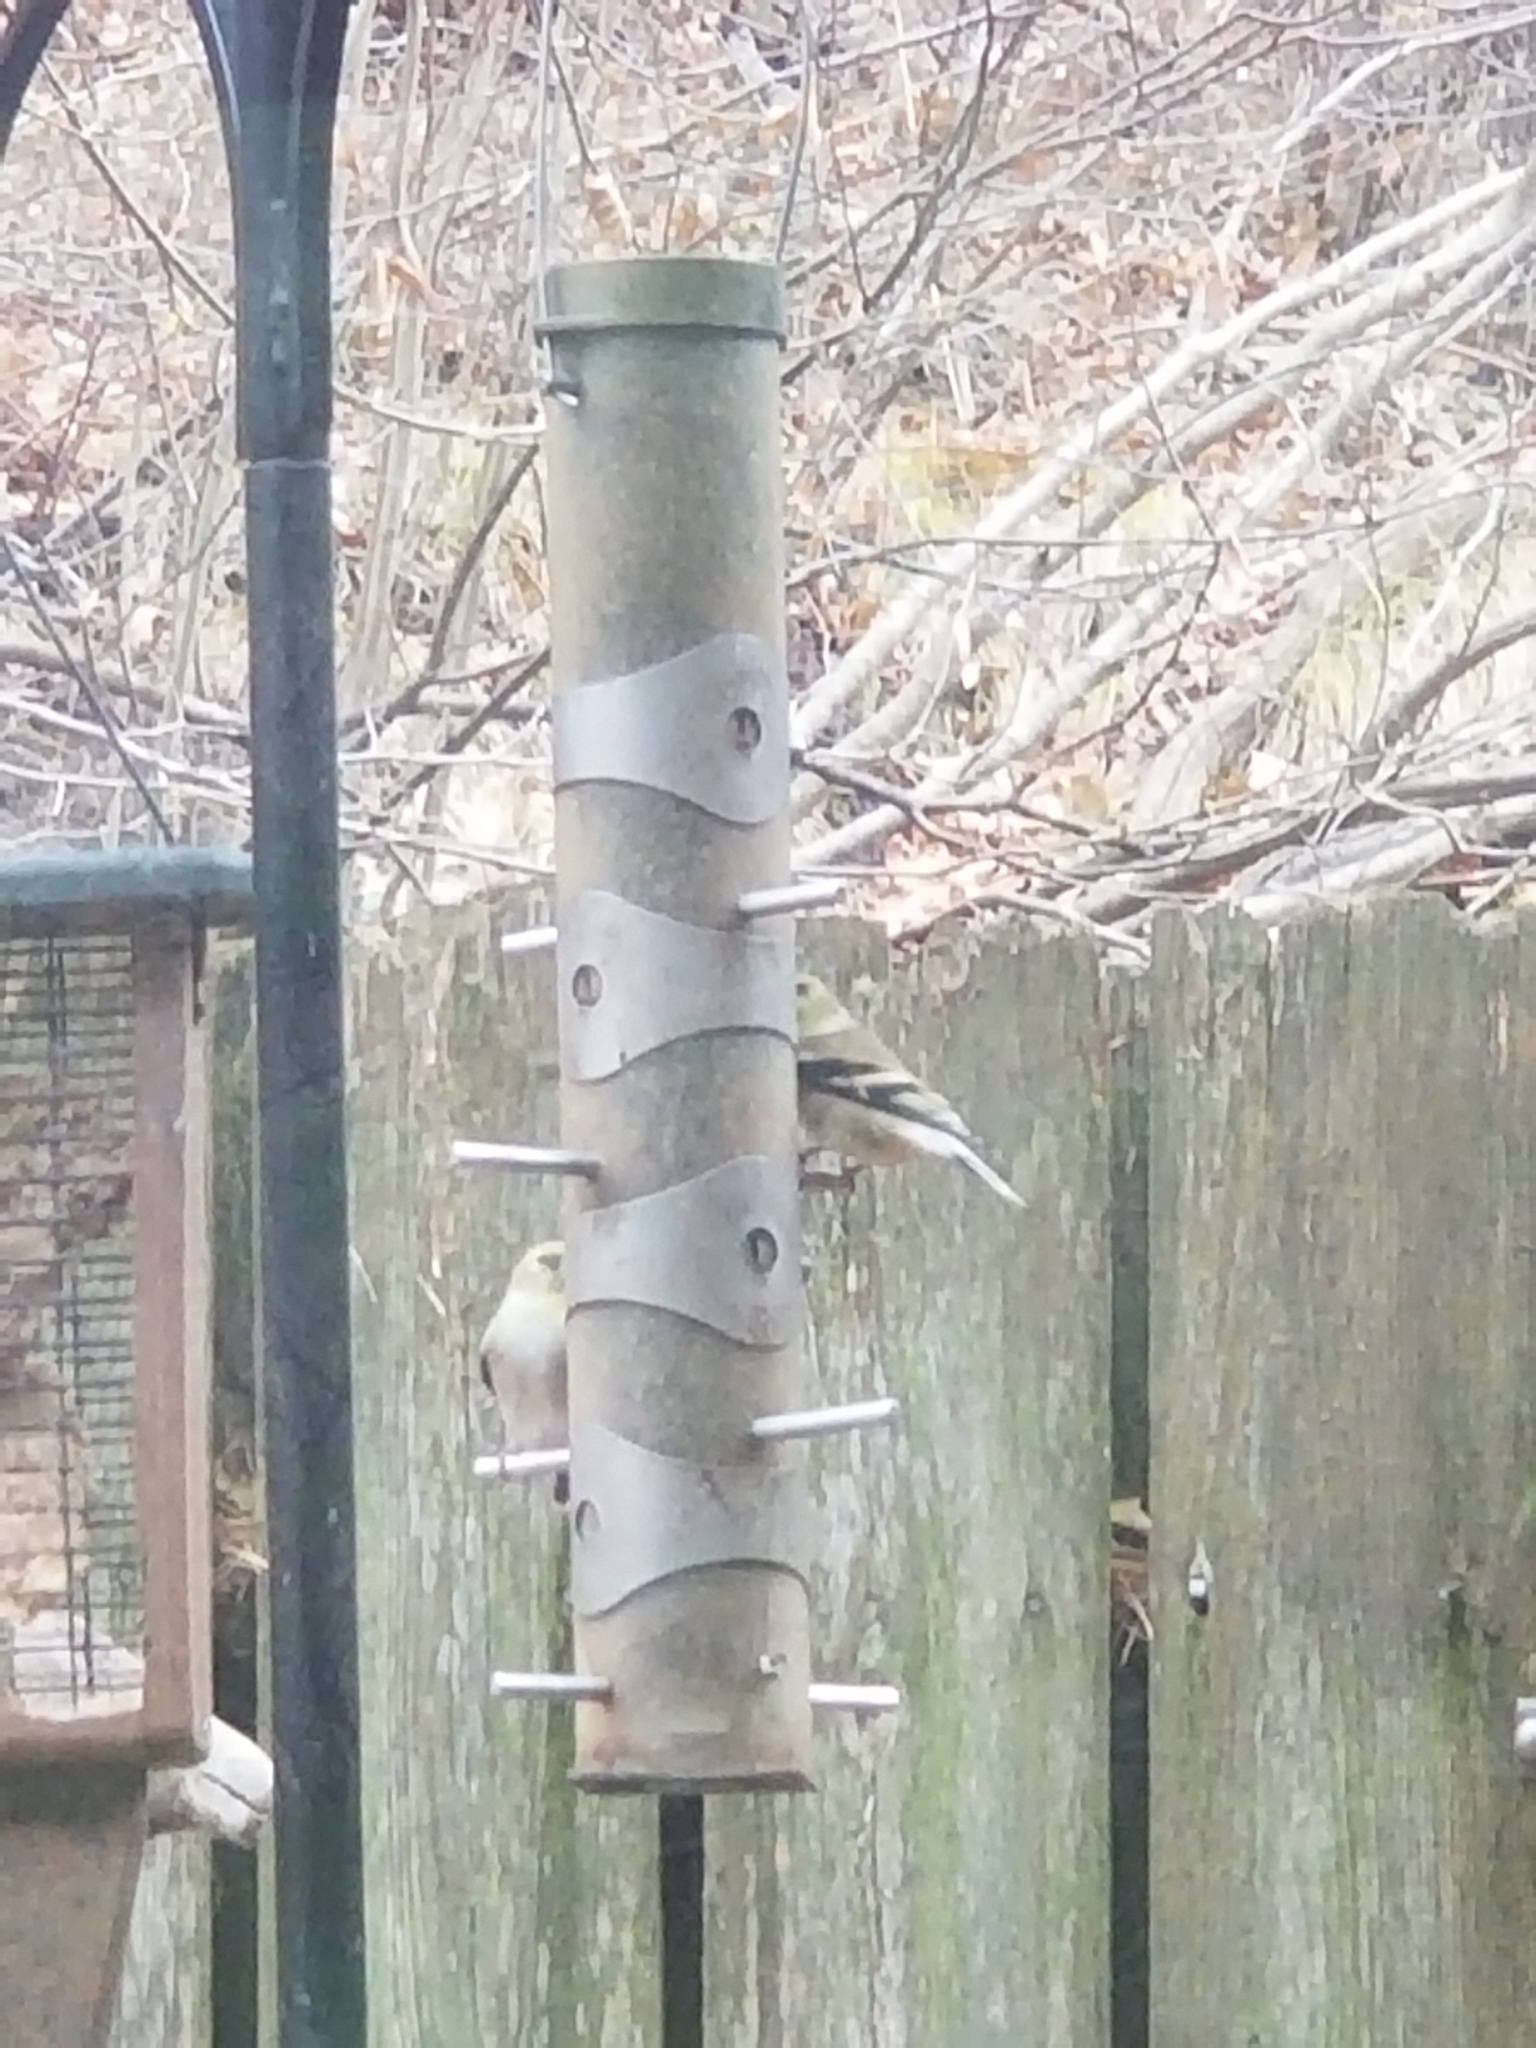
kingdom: Animalia
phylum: Chordata
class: Aves
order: Passeriformes
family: Fringillidae
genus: Spinus
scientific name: Spinus tristis
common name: American goldfinch
